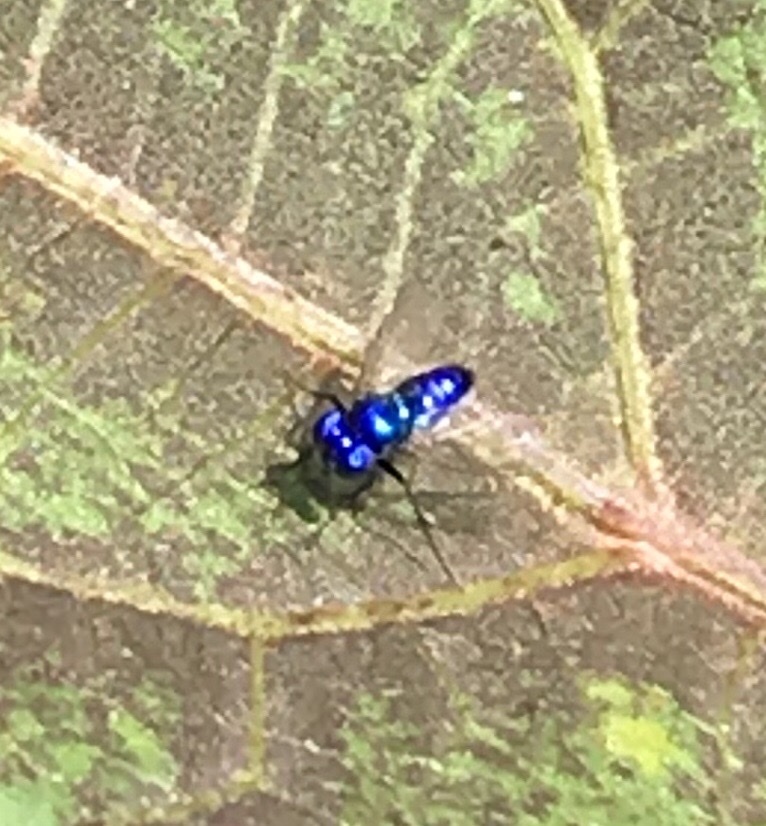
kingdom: Animalia
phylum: Arthropoda
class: Insecta
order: Diptera
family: Dolichopodidae
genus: Condylostylus
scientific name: Condylostylus mundus
